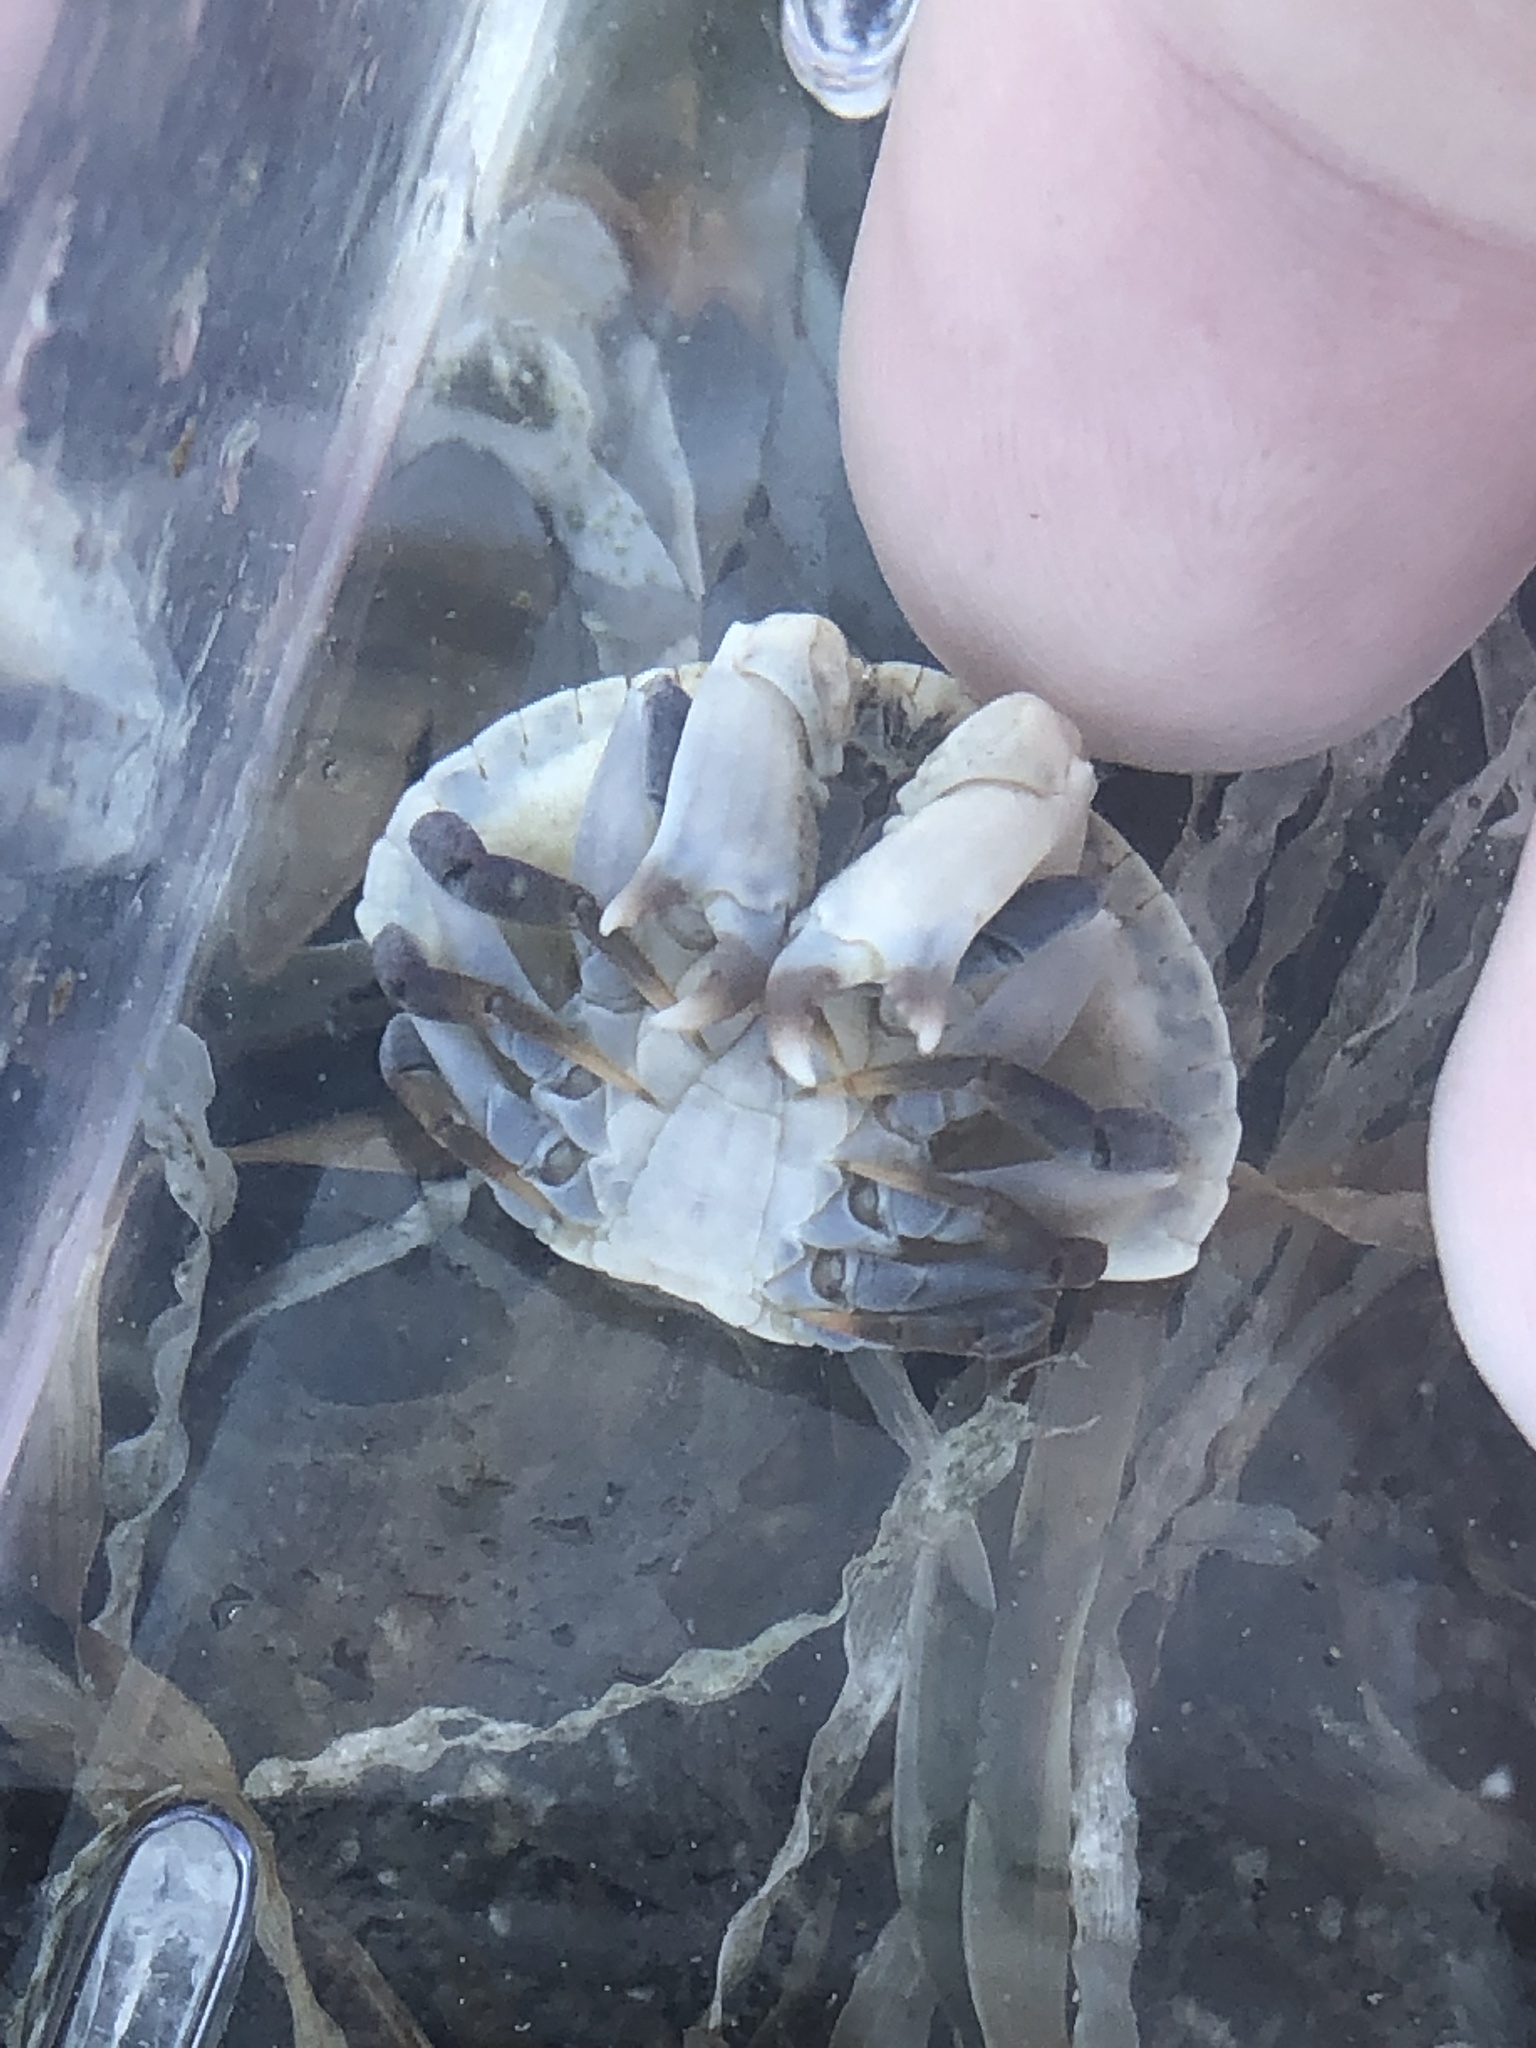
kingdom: Animalia
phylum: Arthropoda
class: Malacostraca
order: Decapoda
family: Cancridae
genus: Cancer
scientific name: Cancer productus
